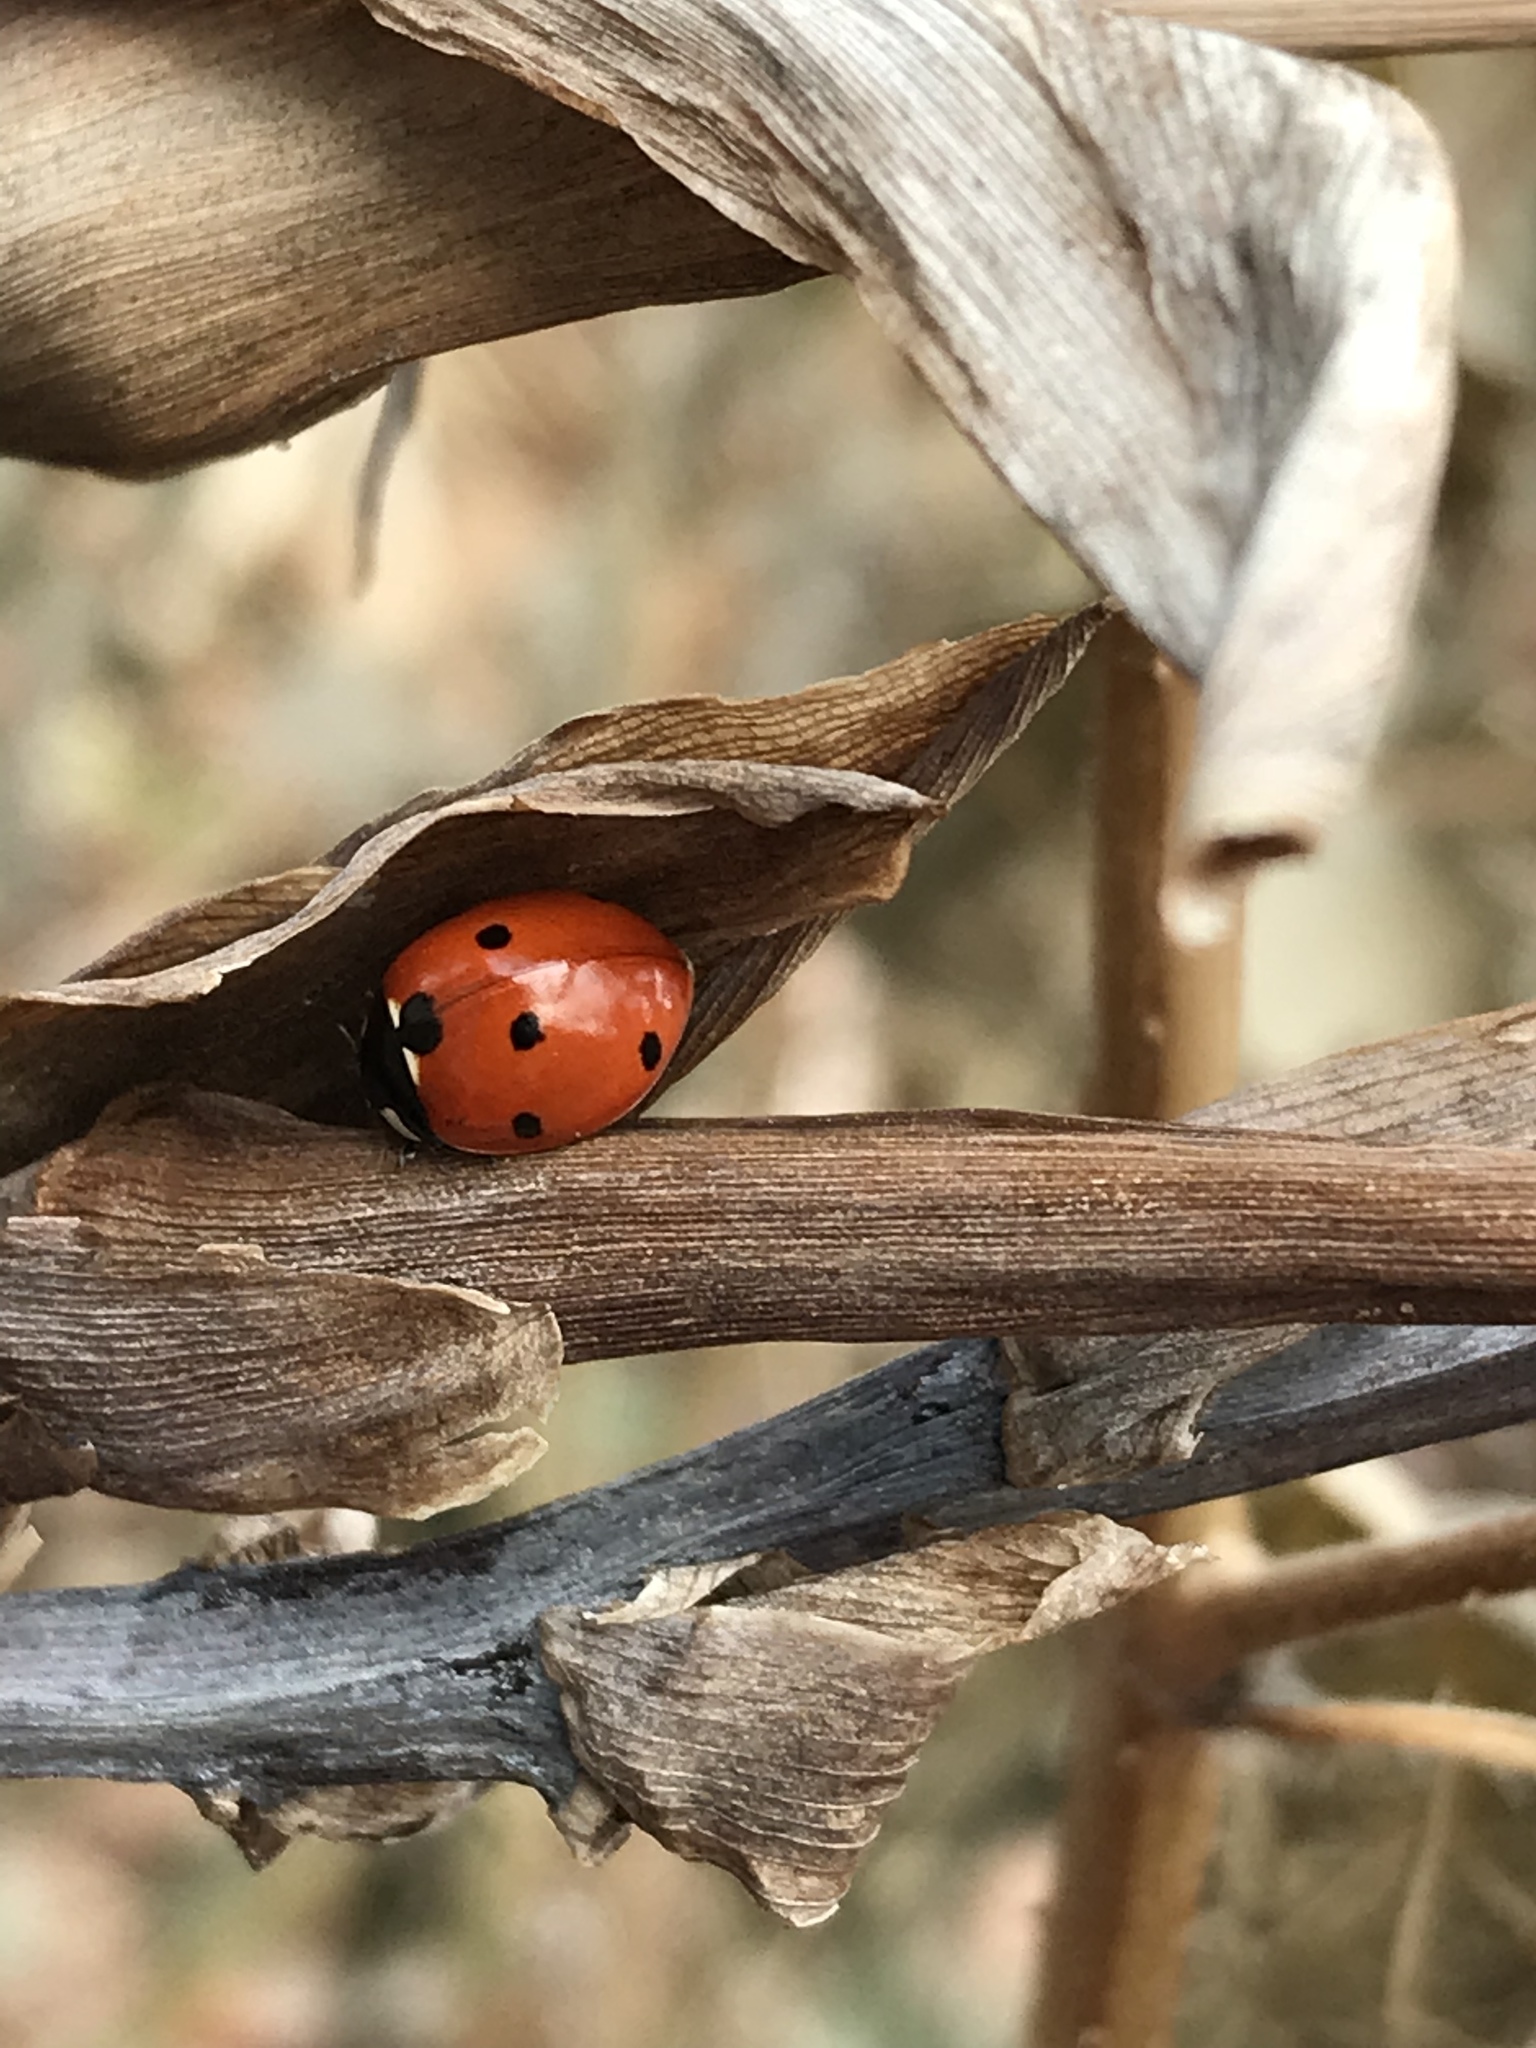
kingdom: Animalia
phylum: Arthropoda
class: Insecta
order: Coleoptera
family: Coccinellidae
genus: Coccinella
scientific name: Coccinella septempunctata
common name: Sevenspotted lady beetle
